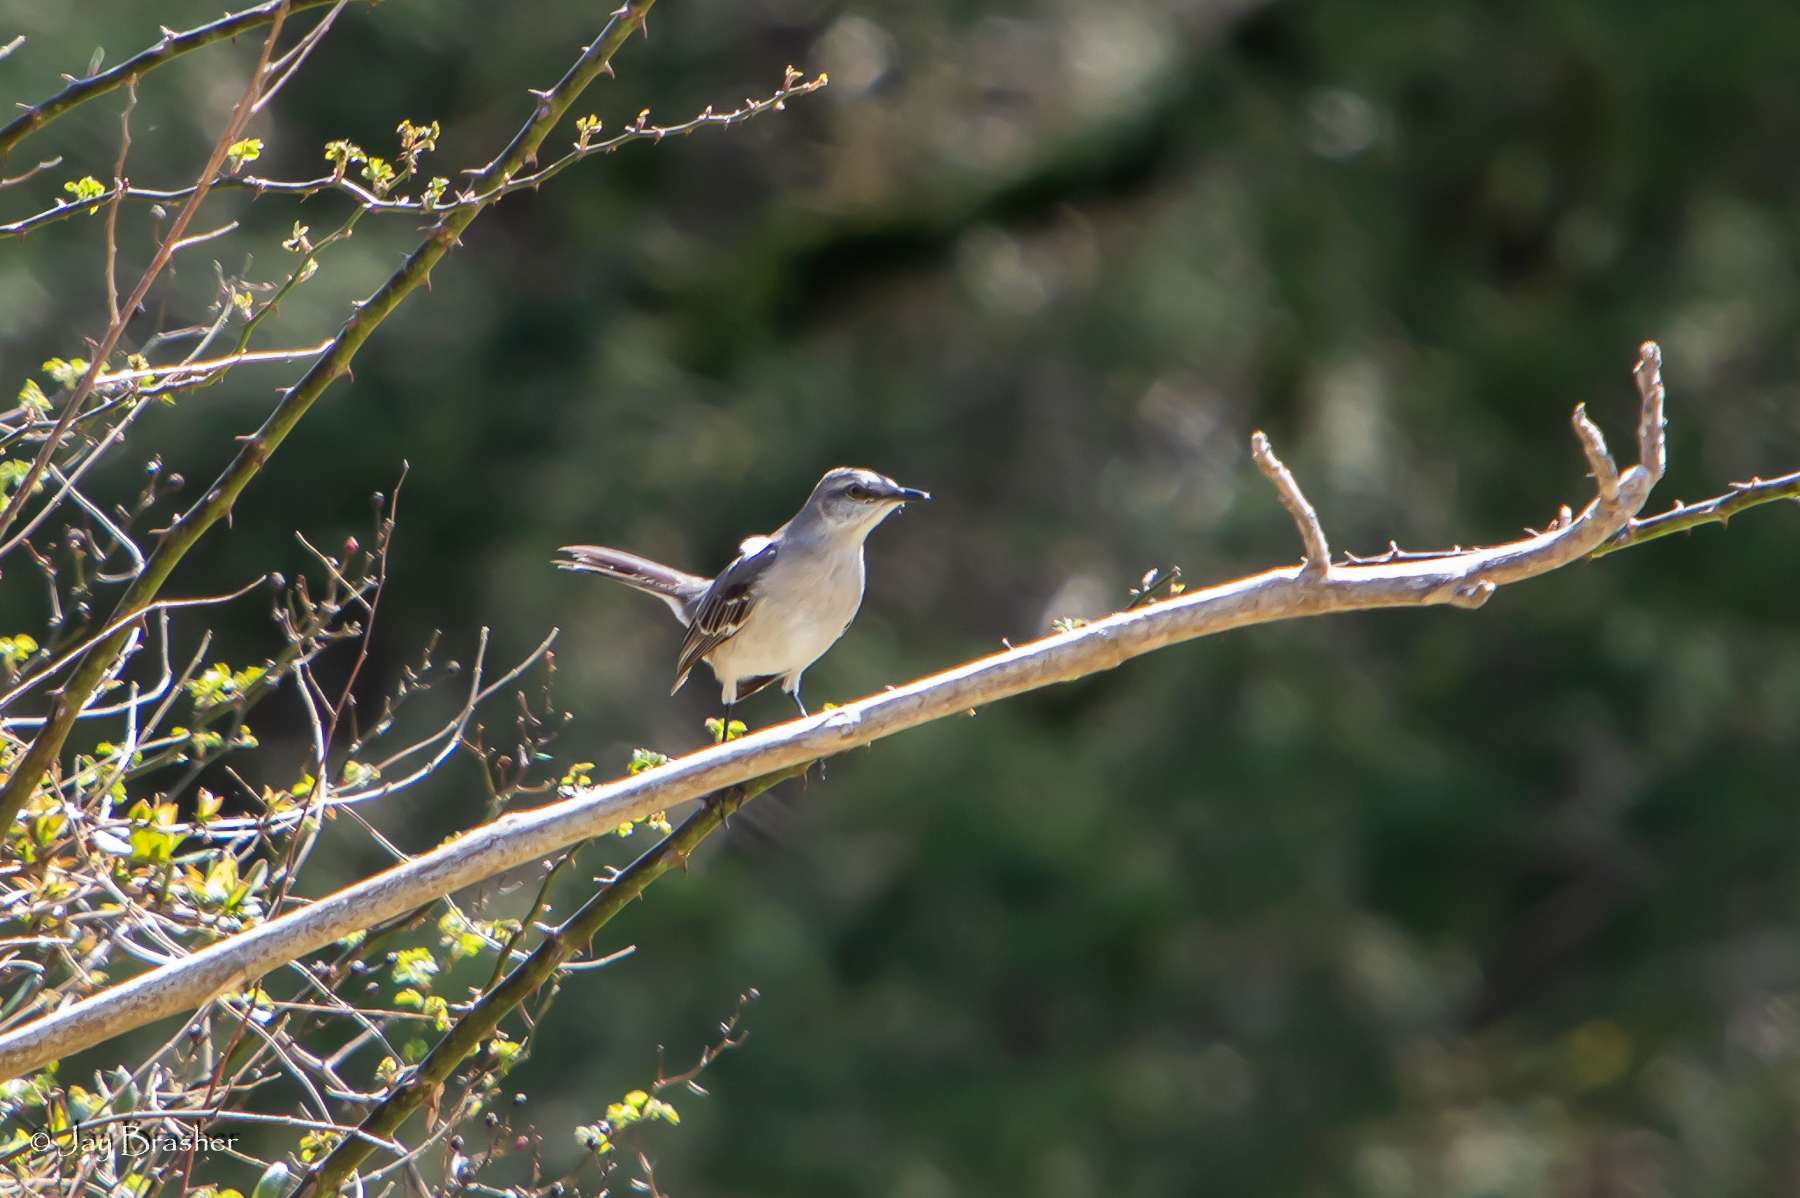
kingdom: Animalia
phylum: Chordata
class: Aves
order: Passeriformes
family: Mimidae
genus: Mimus
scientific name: Mimus polyglottos
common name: Northern mockingbird
